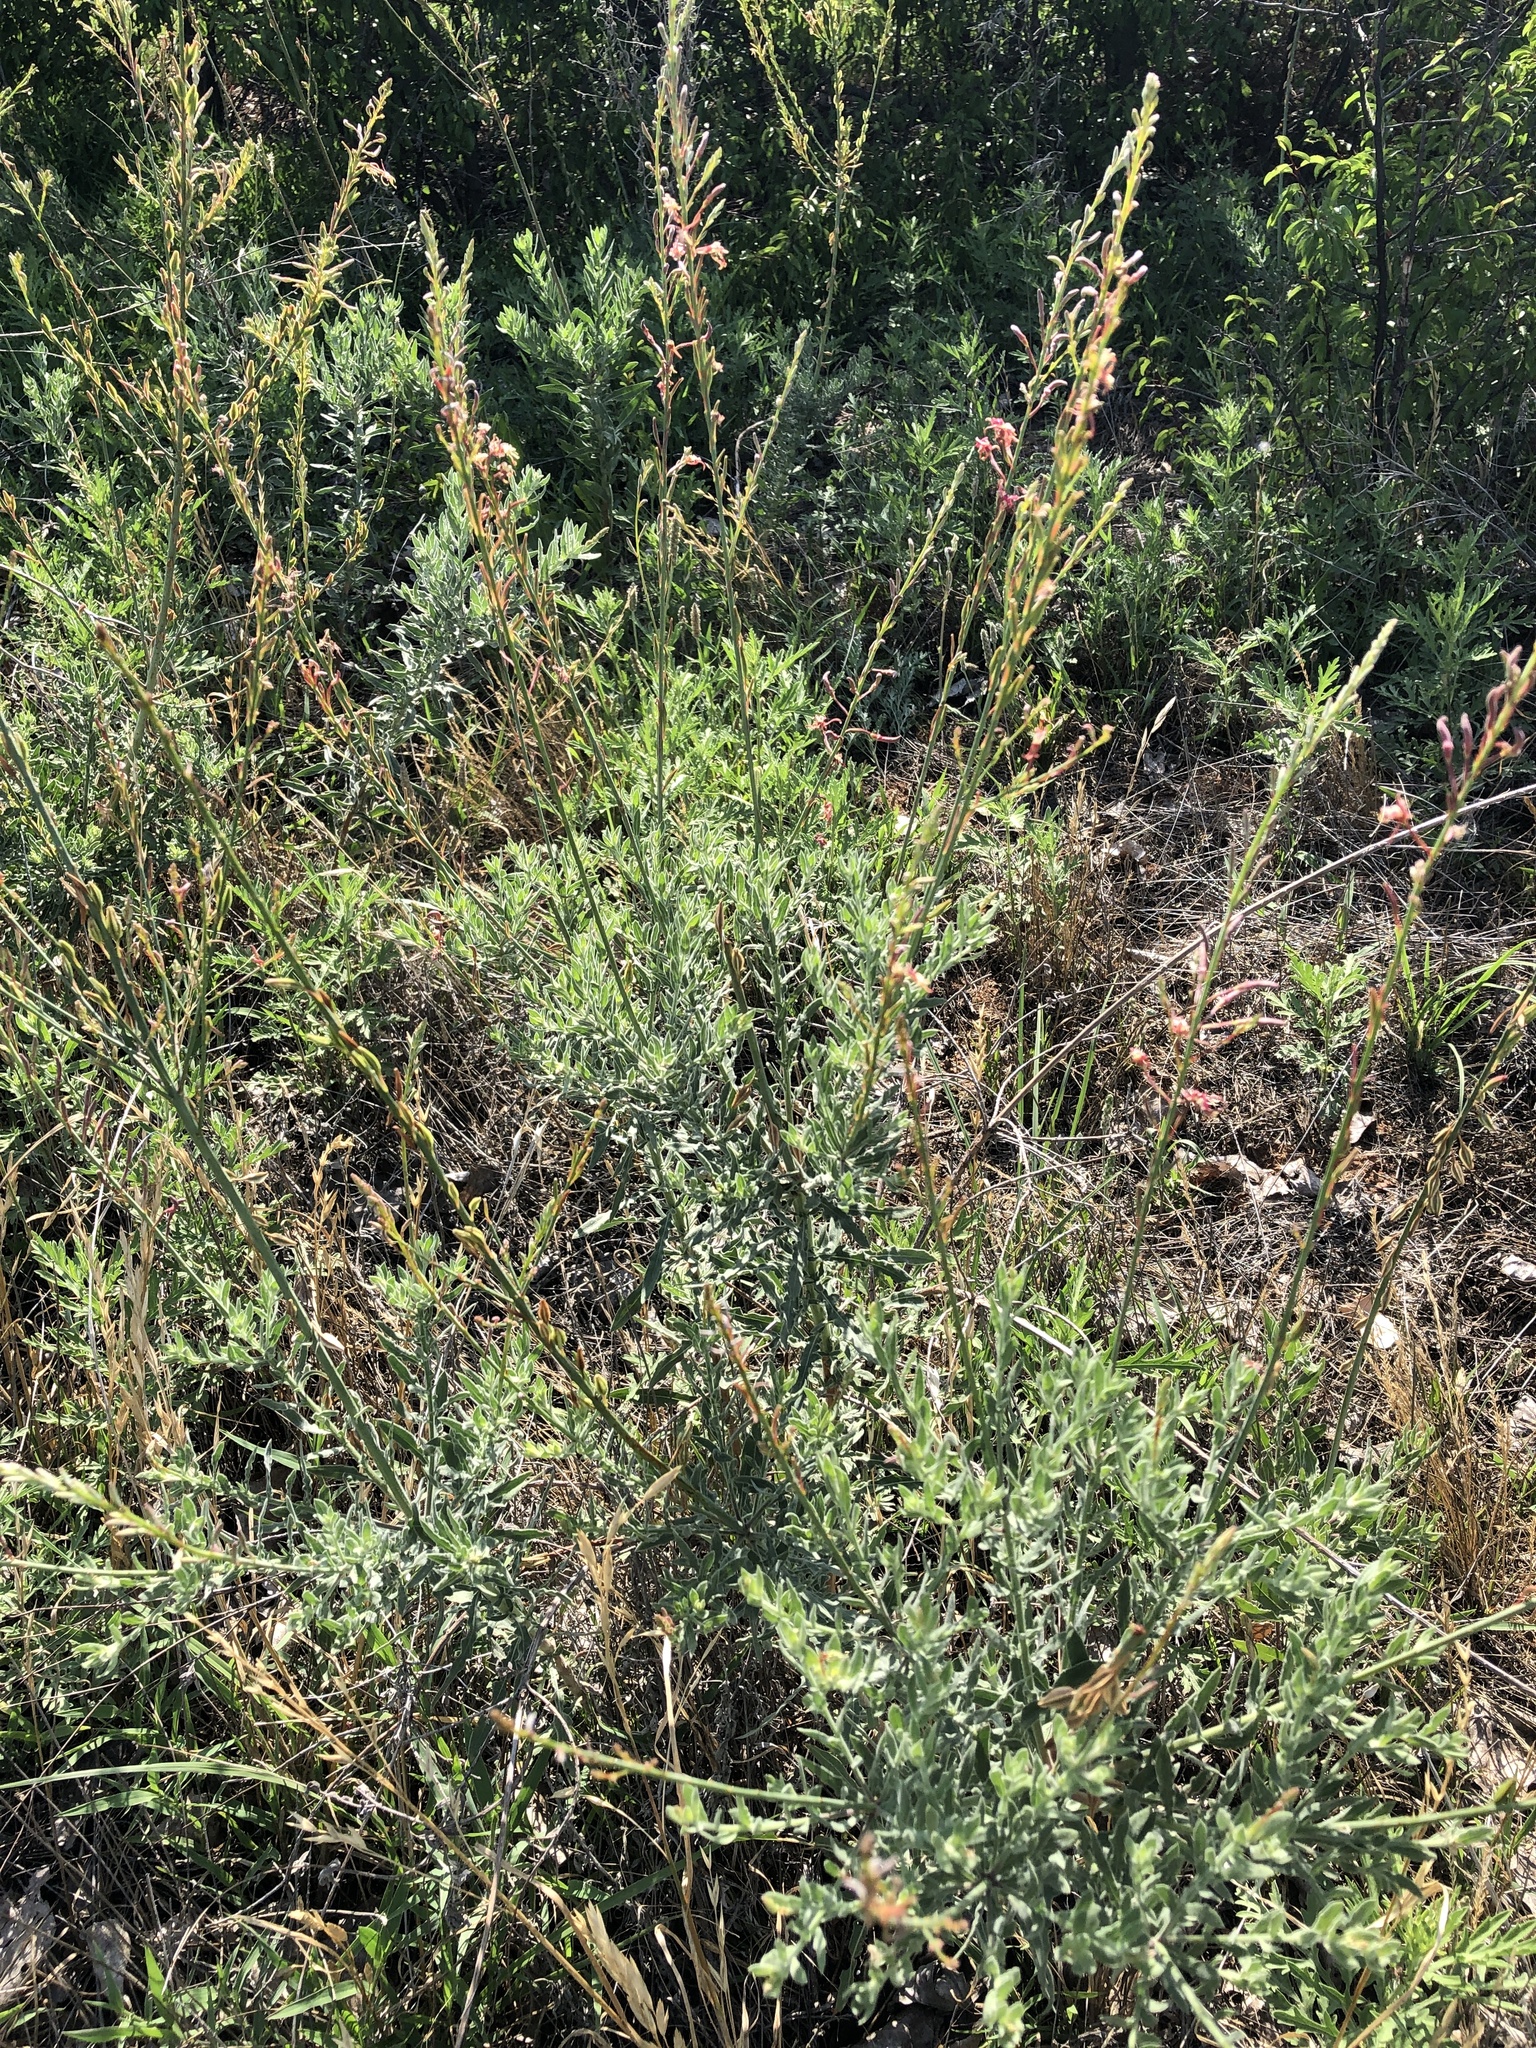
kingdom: Plantae
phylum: Tracheophyta
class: Magnoliopsida
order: Myrtales
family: Onagraceae
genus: Oenothera
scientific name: Oenothera cinerea
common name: Woolly beeblossom
